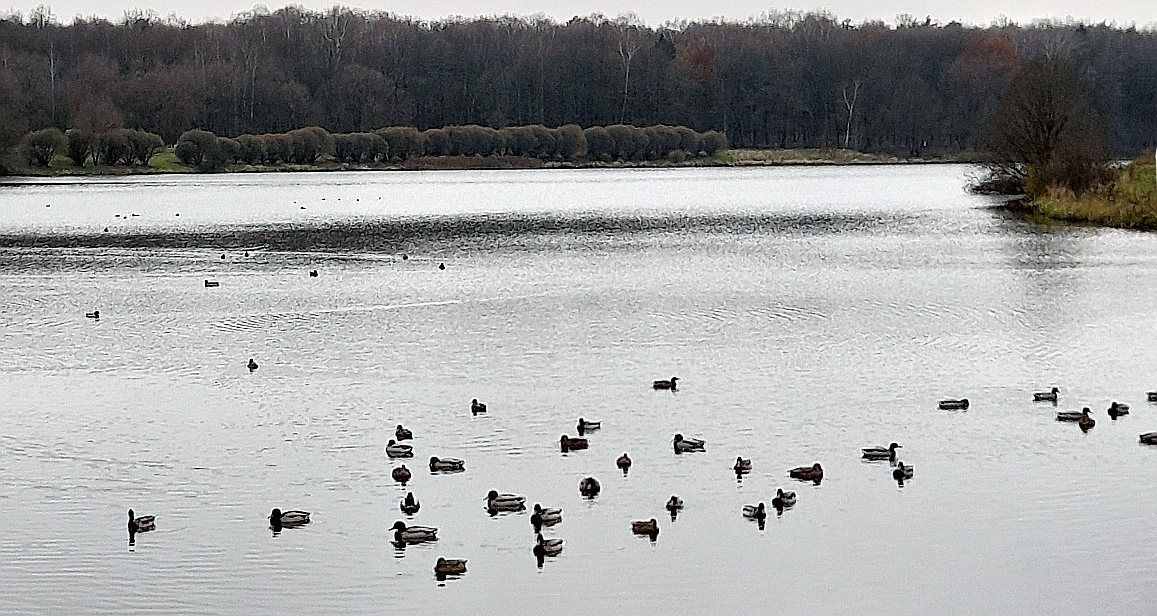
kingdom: Animalia
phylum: Chordata
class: Aves
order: Anseriformes
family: Anatidae
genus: Anas
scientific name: Anas platyrhynchos
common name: Mallard
